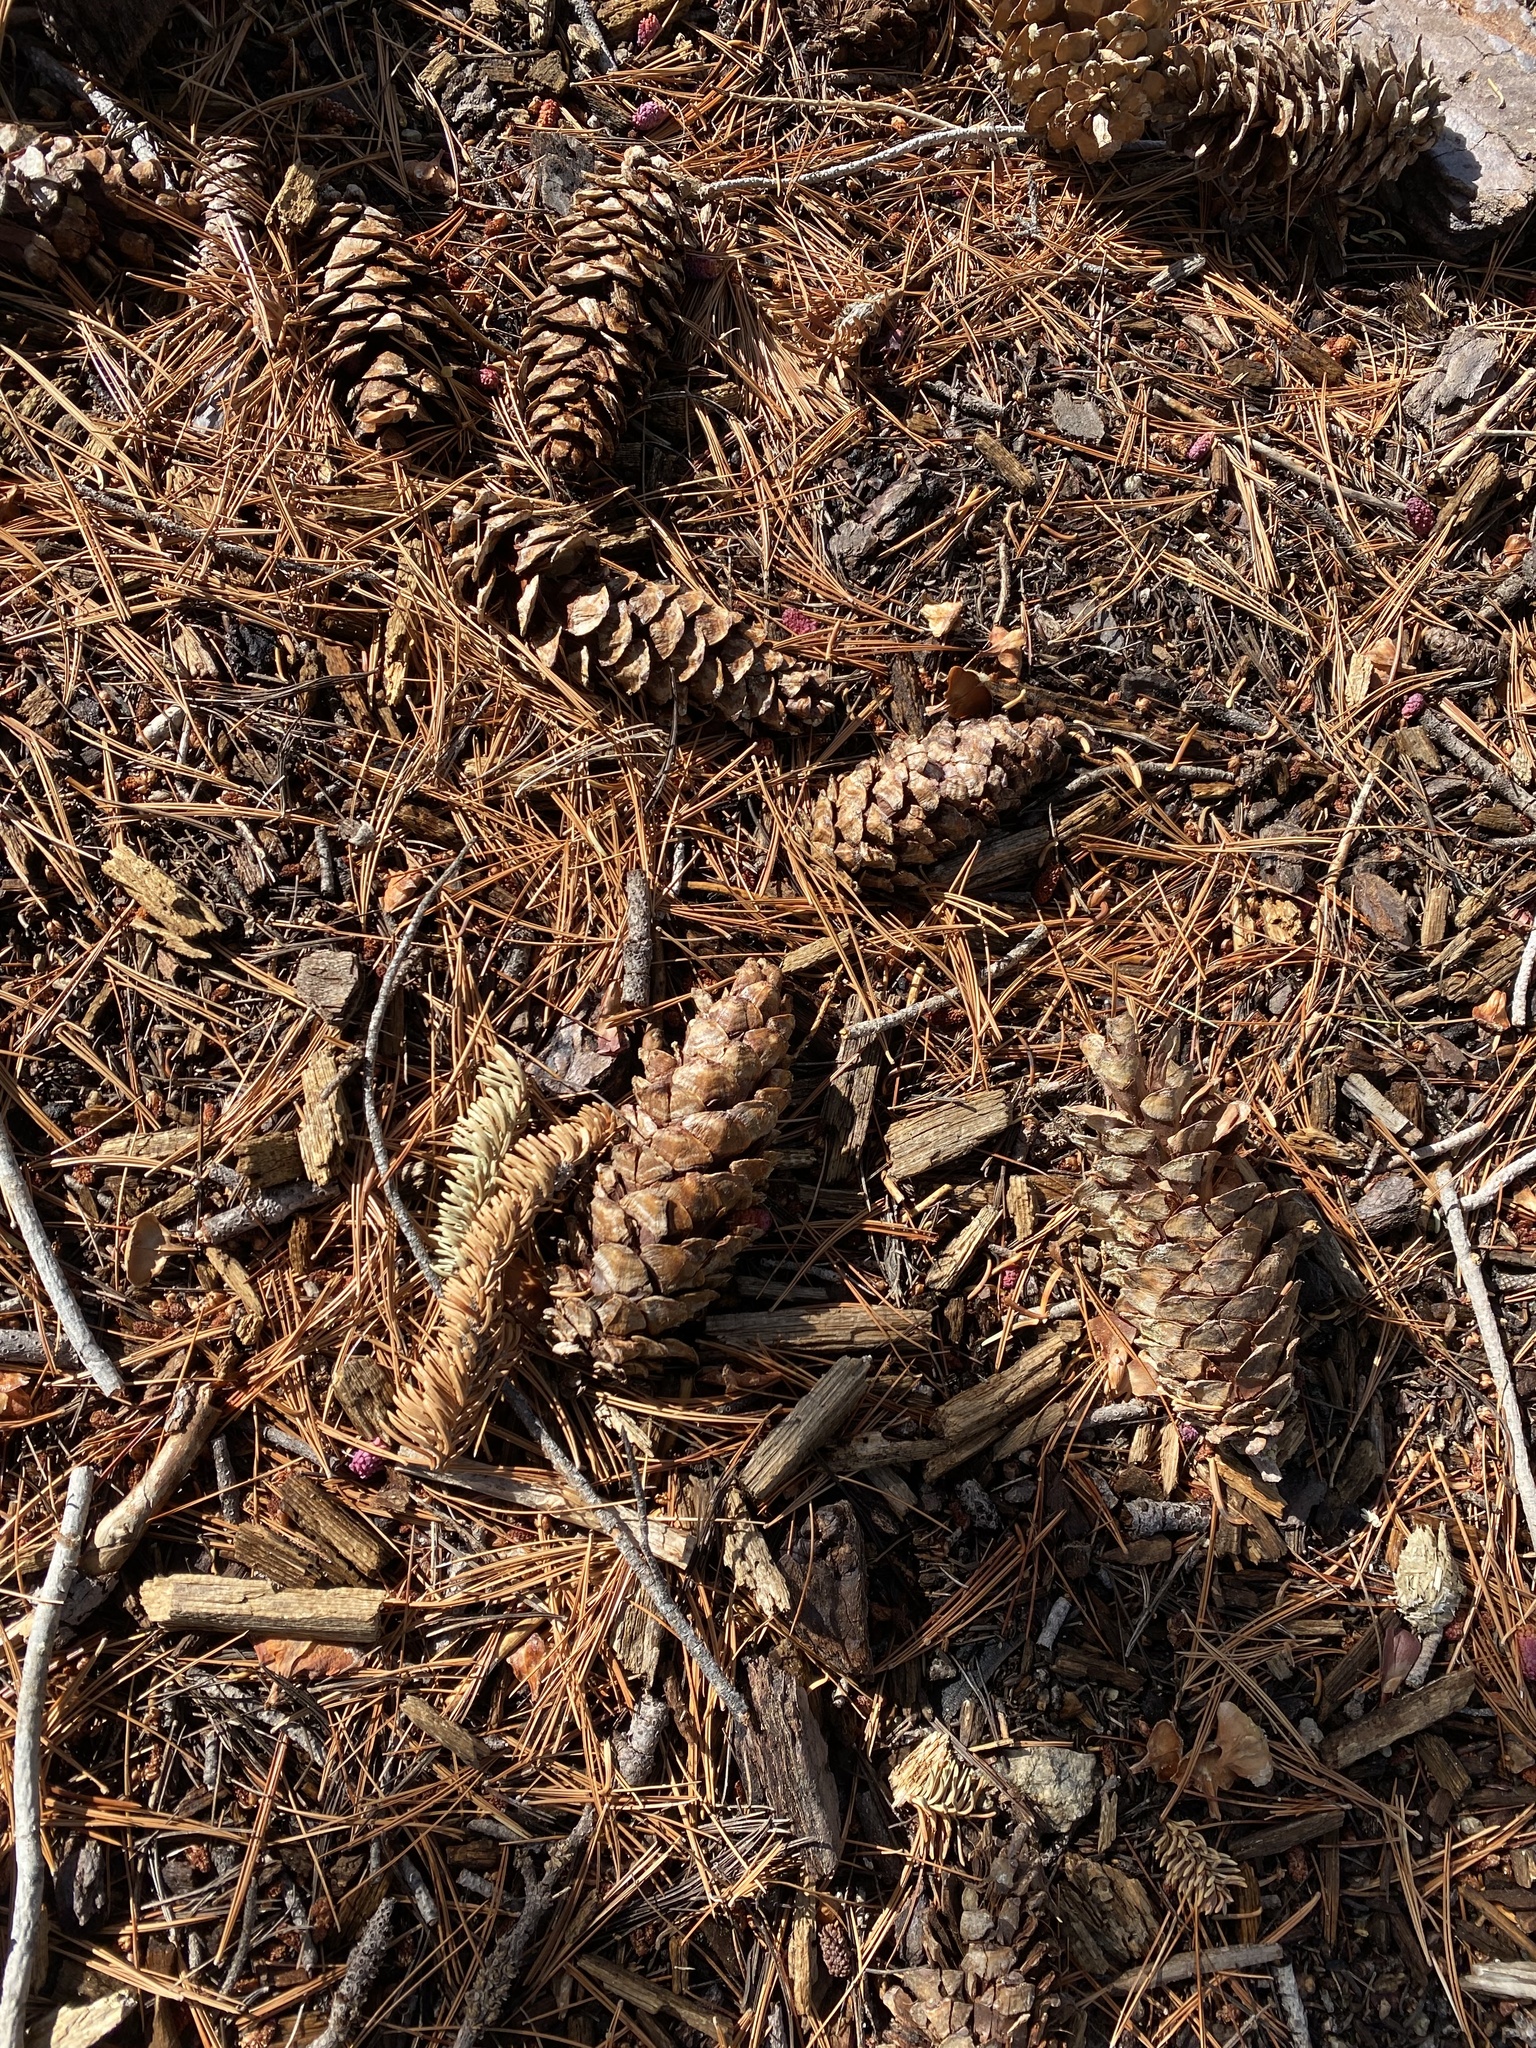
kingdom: Plantae
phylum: Tracheophyta
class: Pinopsida
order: Pinales
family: Pinaceae
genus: Pinus
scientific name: Pinus flexilis
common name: Limber pine
